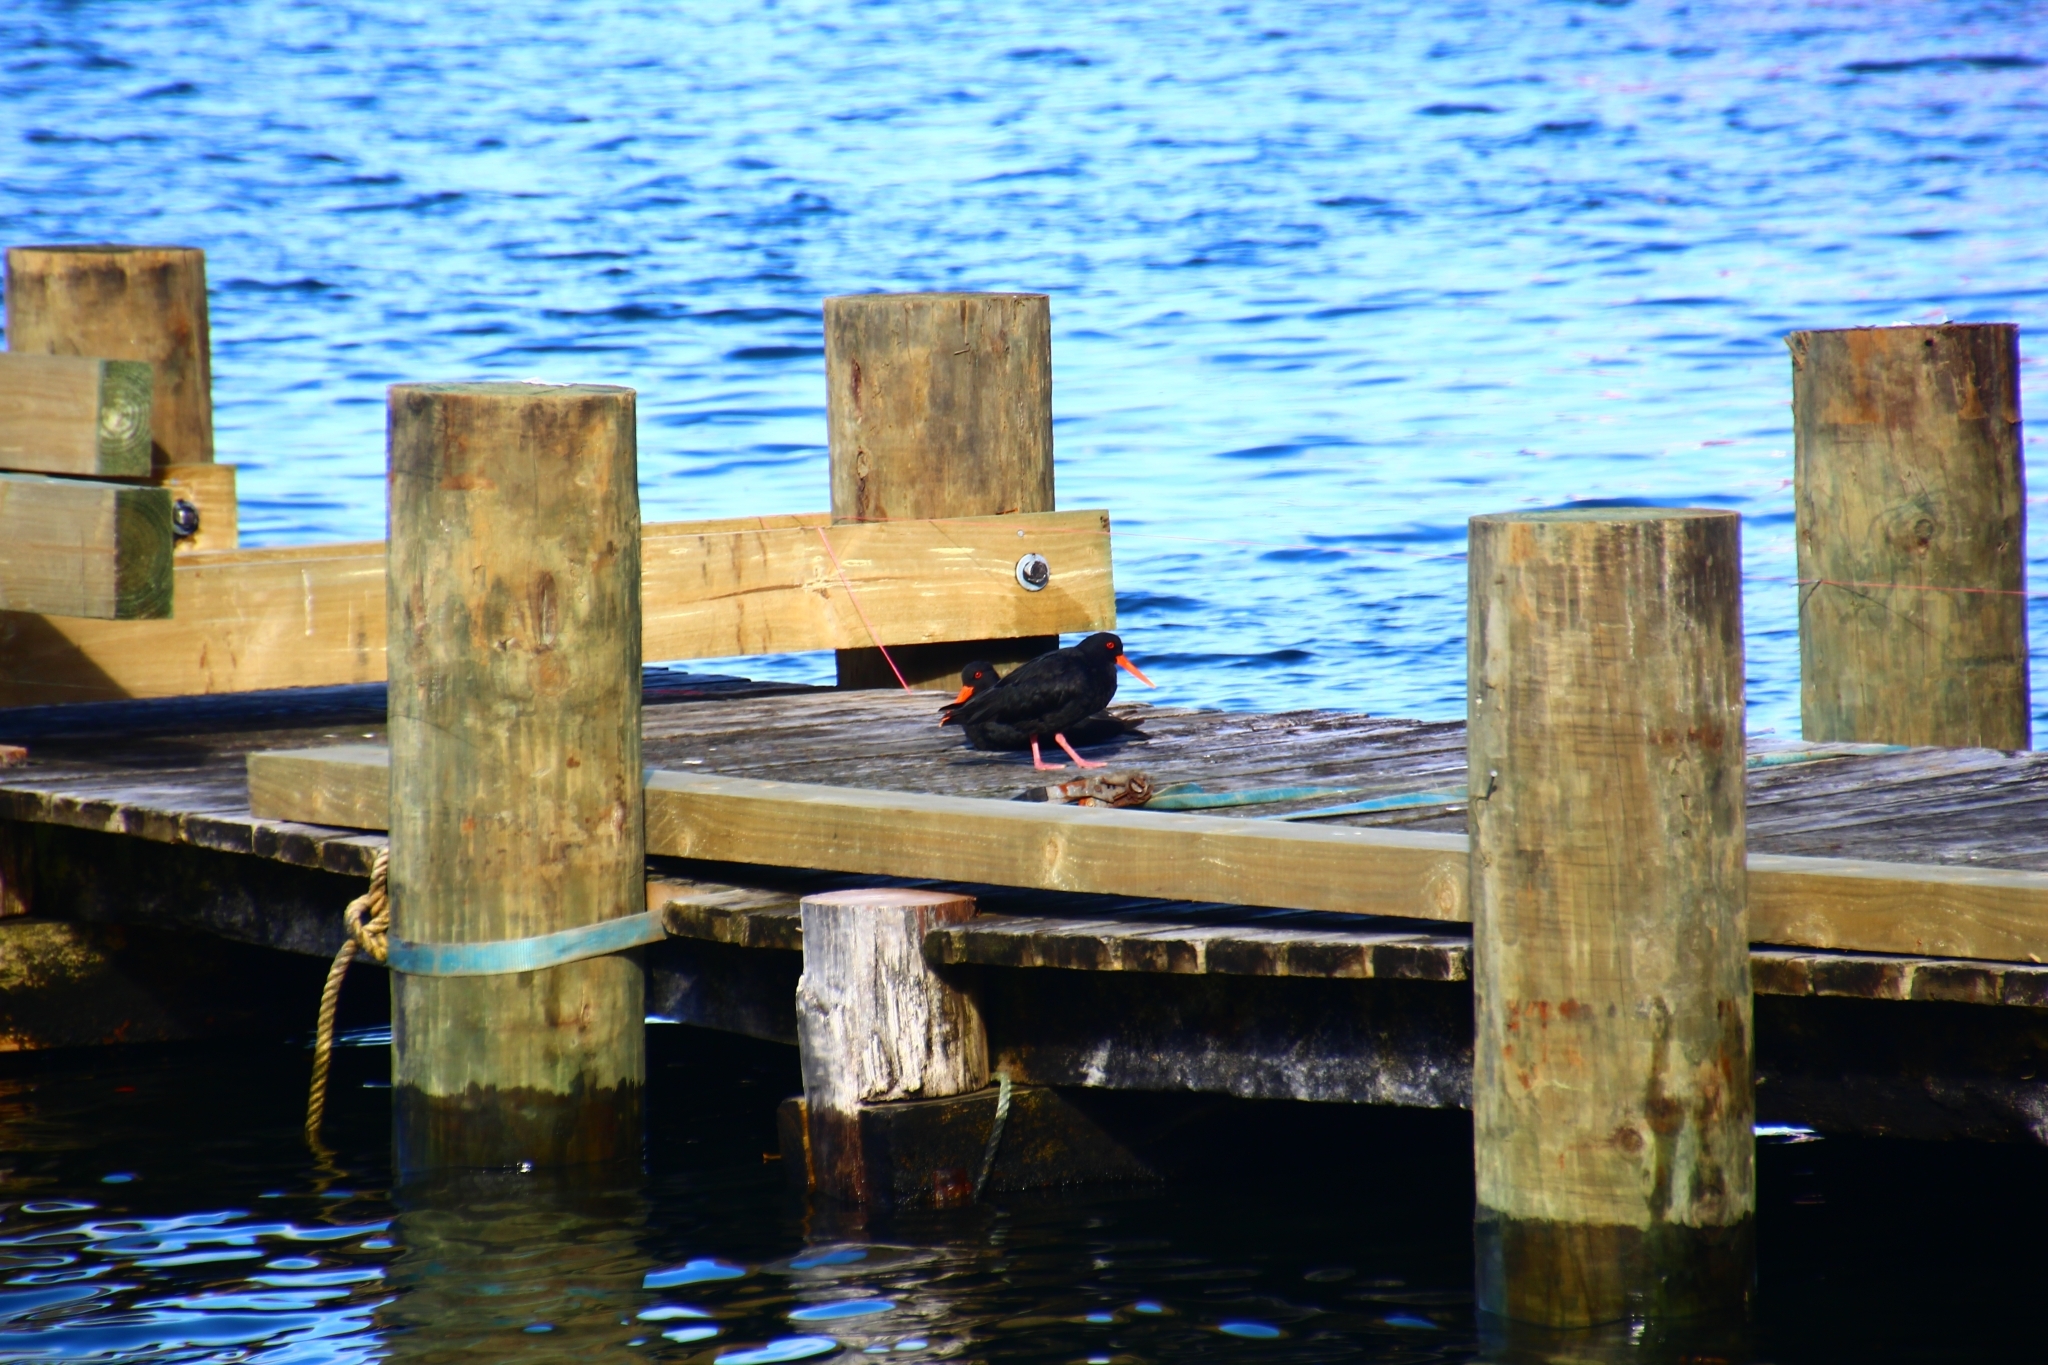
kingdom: Animalia
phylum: Chordata
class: Aves
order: Charadriiformes
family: Haematopodidae
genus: Haematopus
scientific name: Haematopus unicolor
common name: Variable oystercatcher
